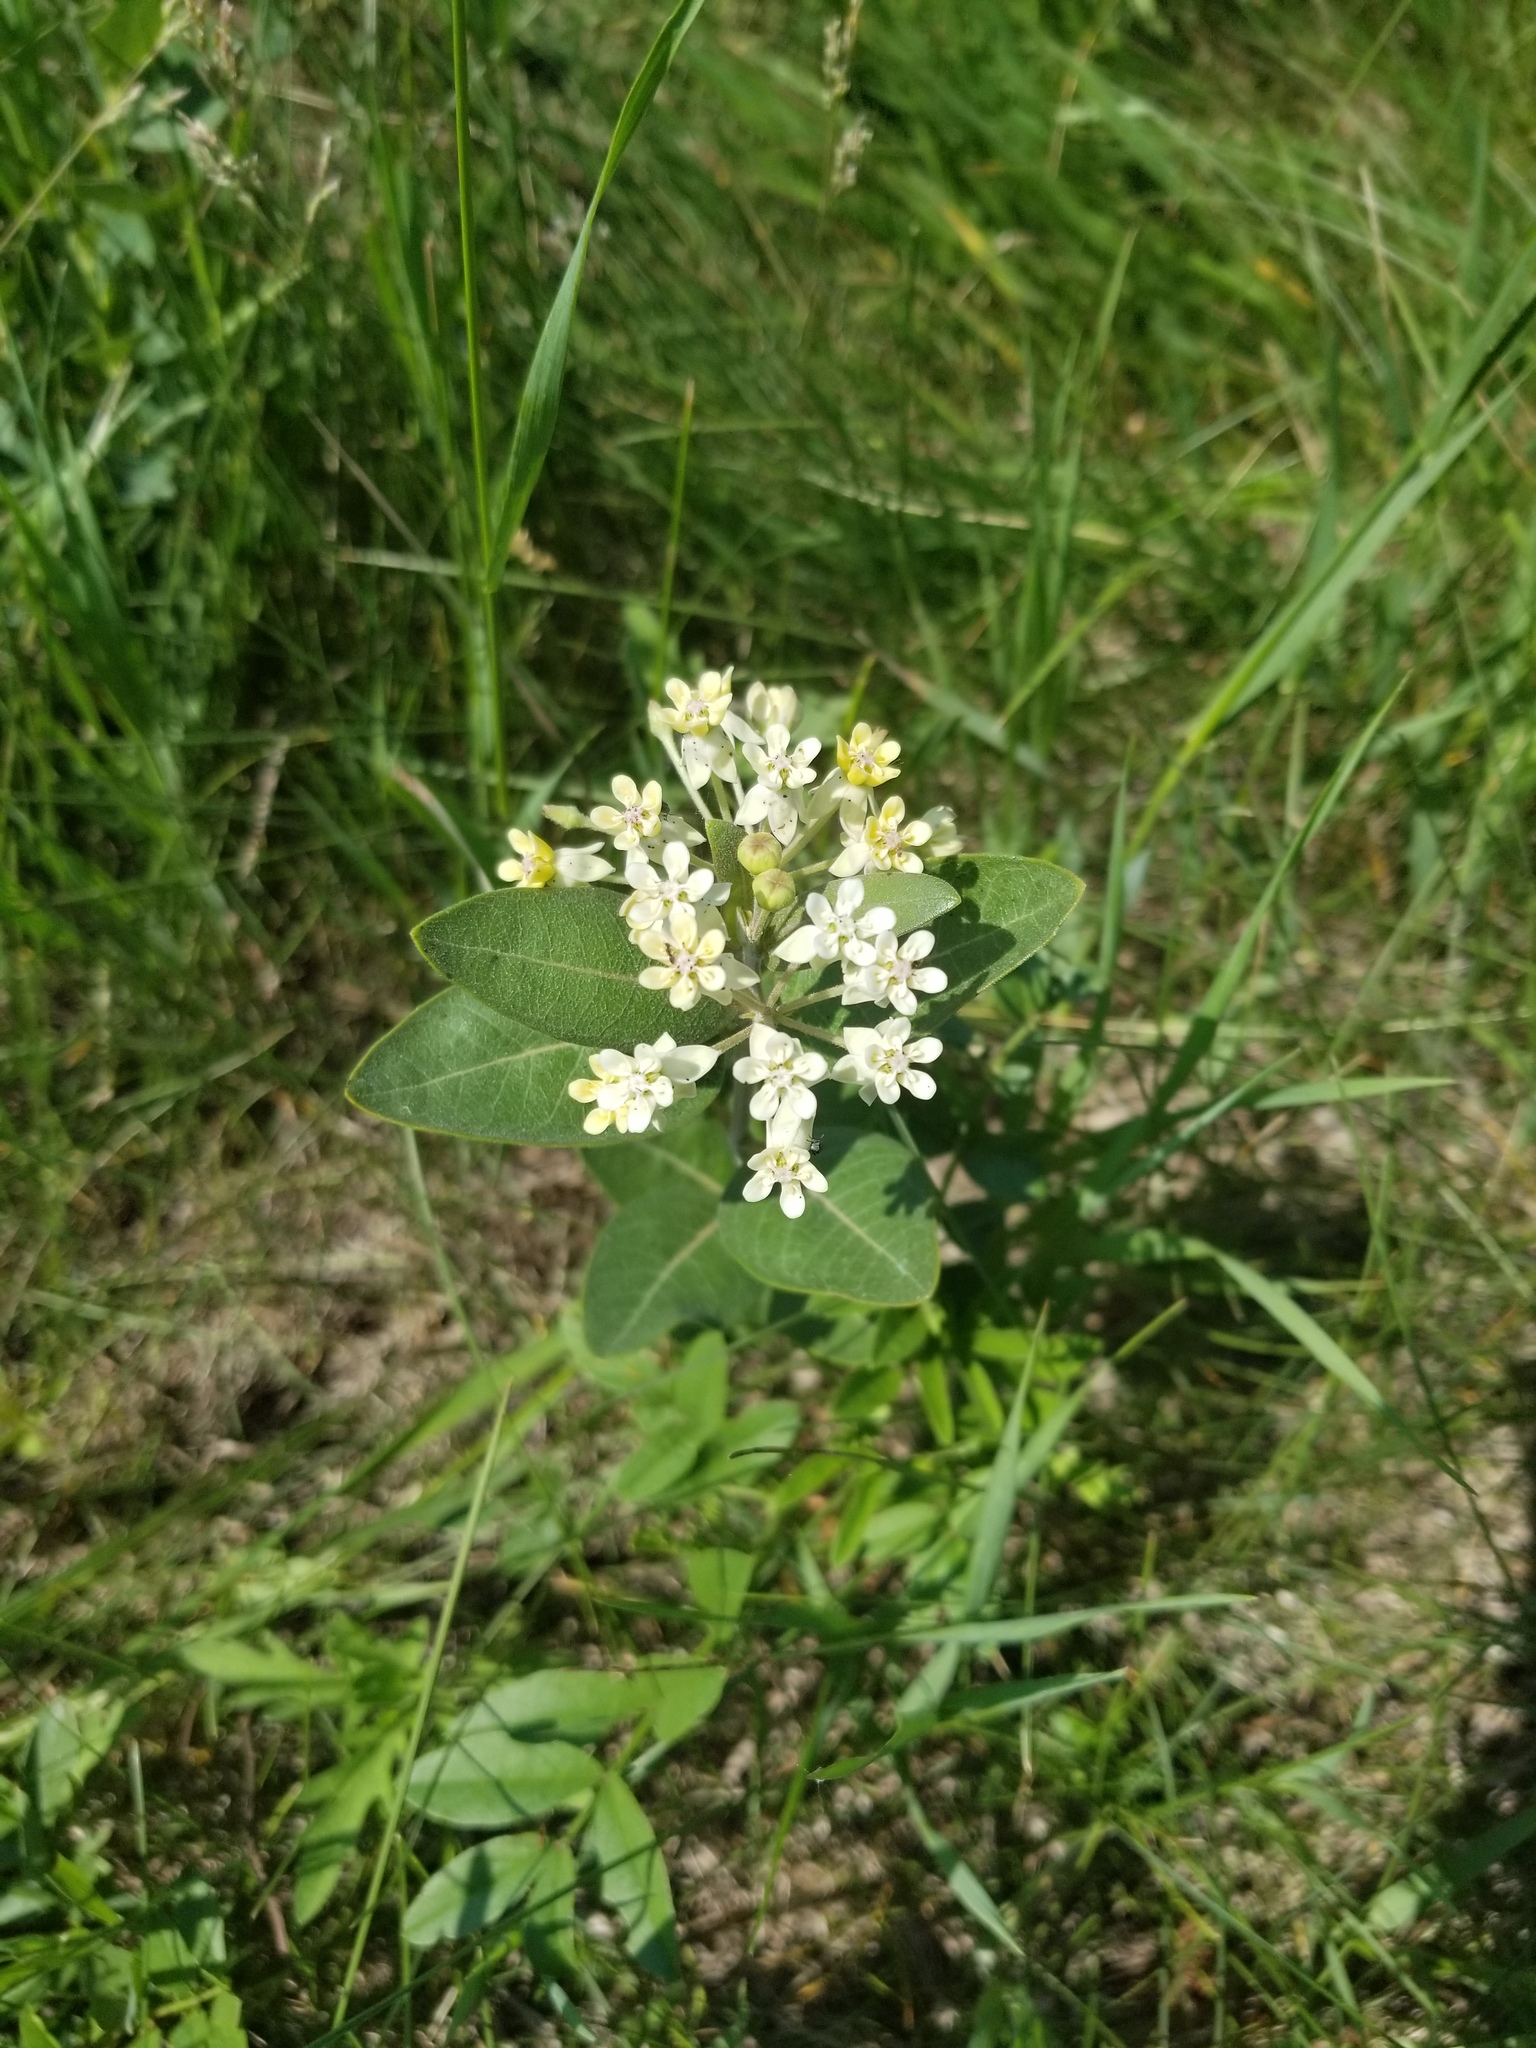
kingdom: Plantae
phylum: Tracheophyta
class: Magnoliopsida
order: Gentianales
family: Apocynaceae
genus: Asclepias
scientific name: Asclepias ovalifolia
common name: Dwarf milkweed
